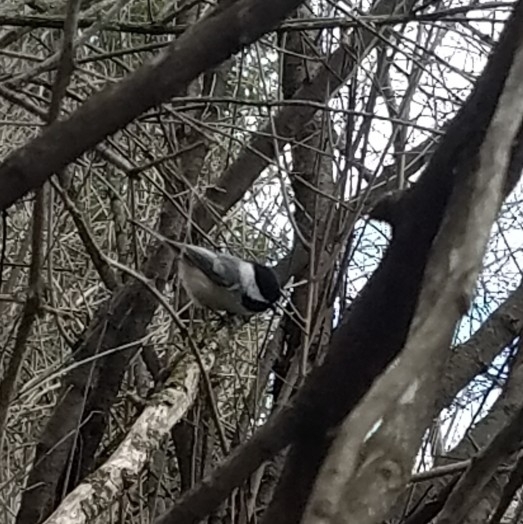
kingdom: Animalia
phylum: Chordata
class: Aves
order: Passeriformes
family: Paridae
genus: Poecile
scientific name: Poecile atricapillus
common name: Black-capped chickadee
